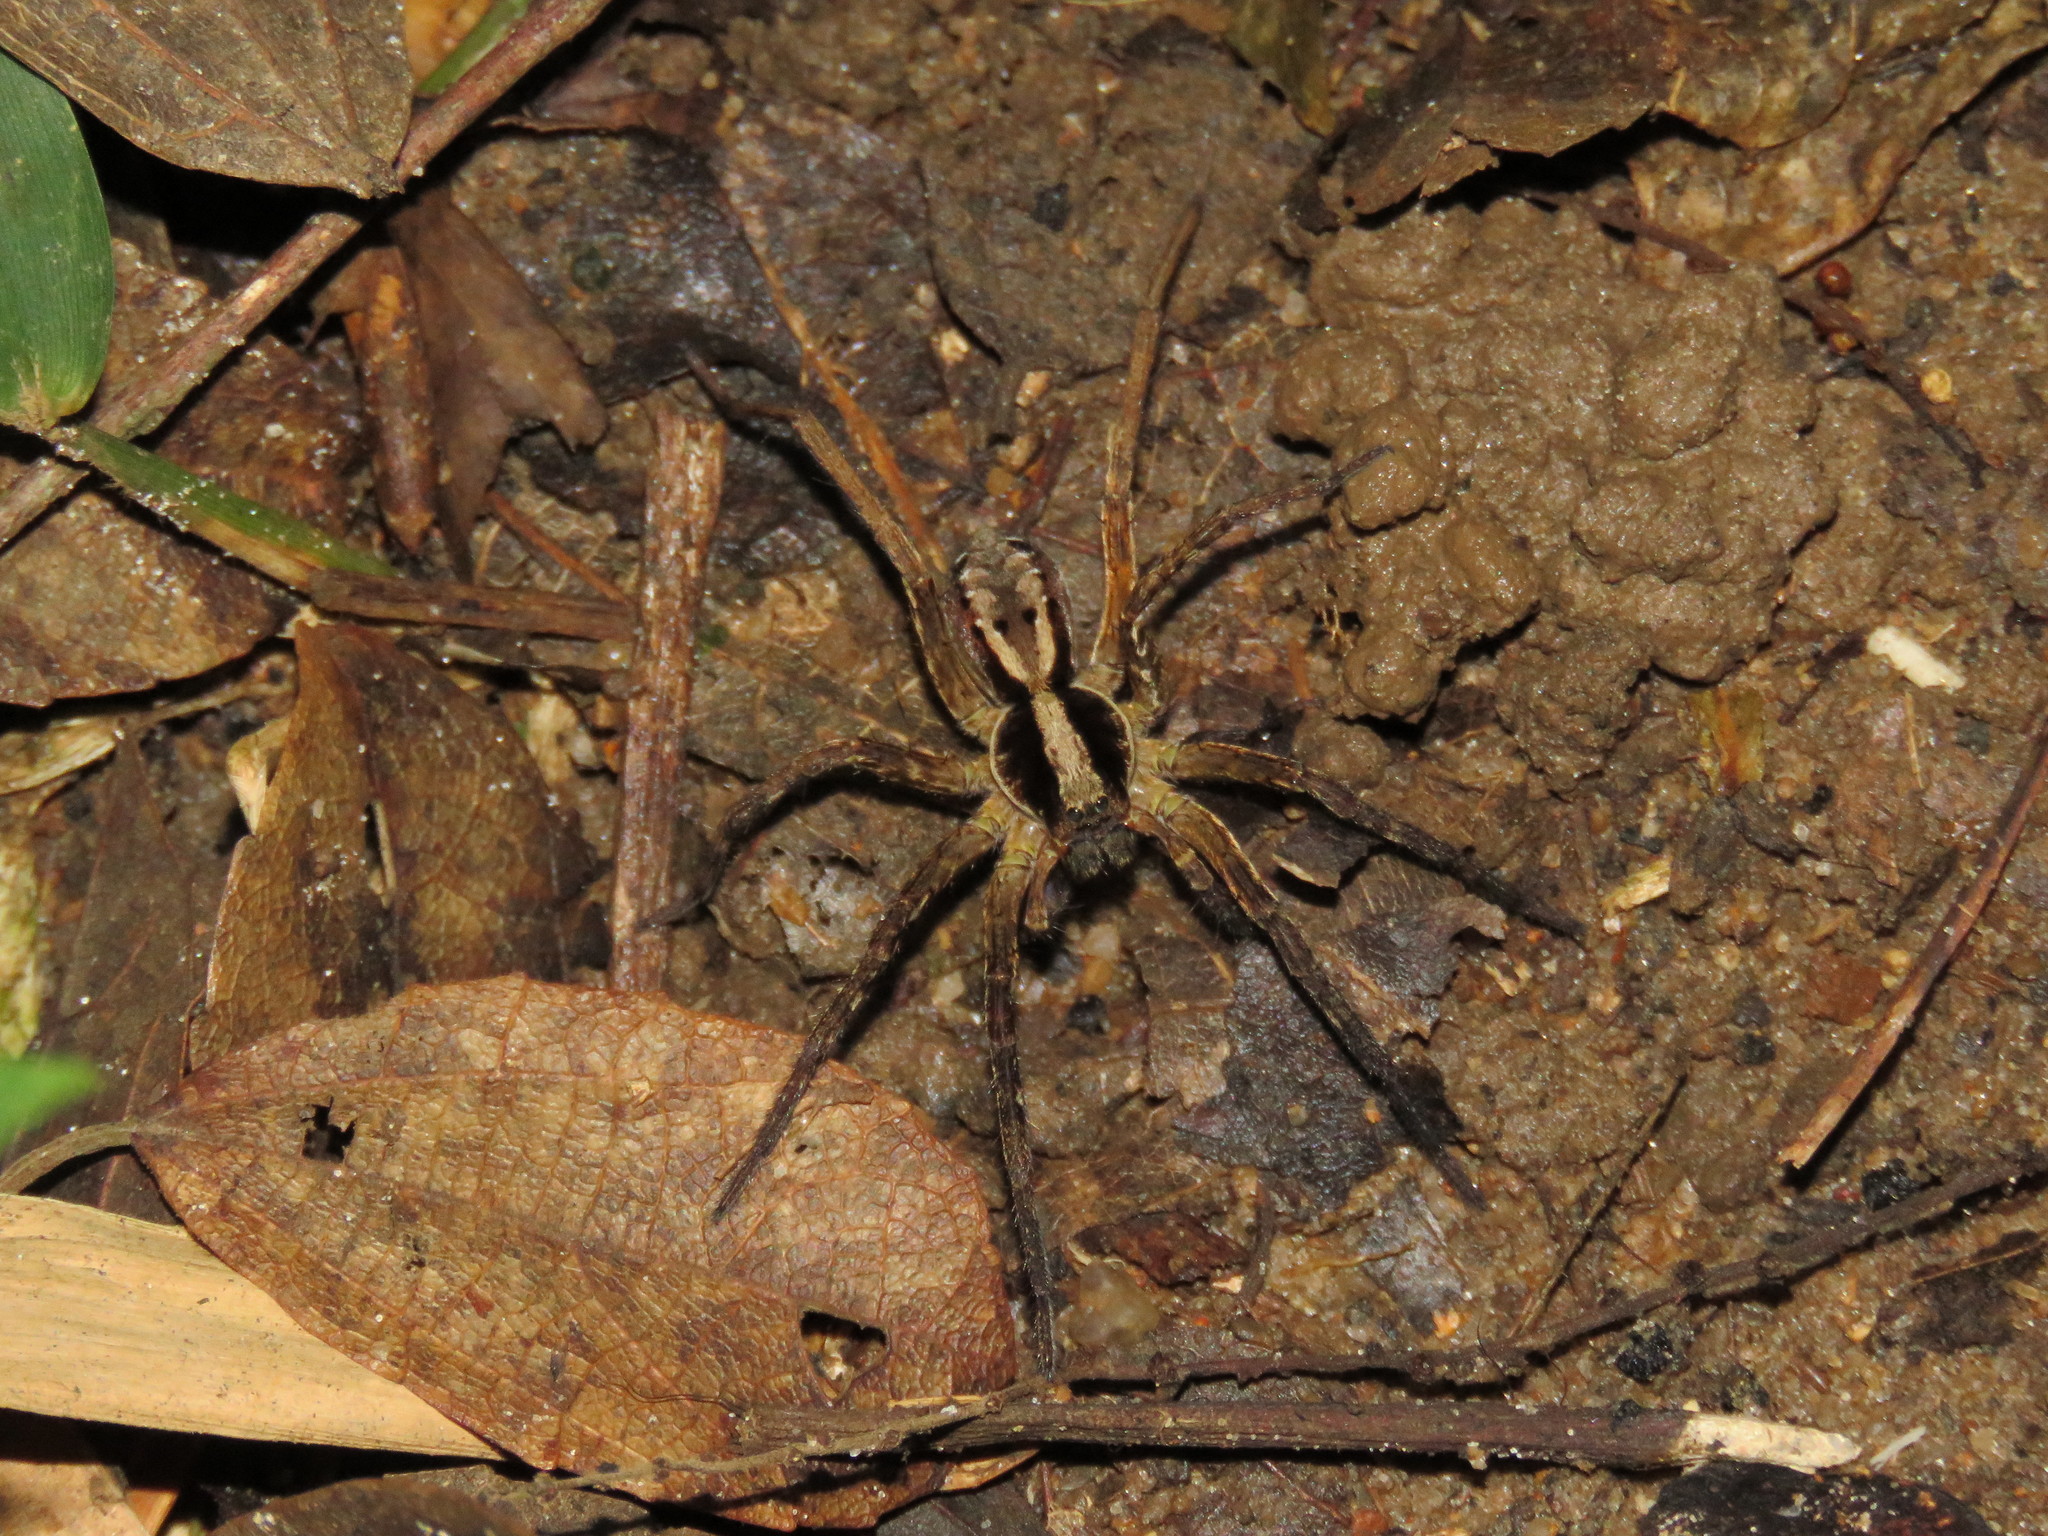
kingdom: Animalia
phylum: Arthropoda
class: Arachnida
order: Araneae
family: Lycosidae
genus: Hogna
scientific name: Hogna gumia
